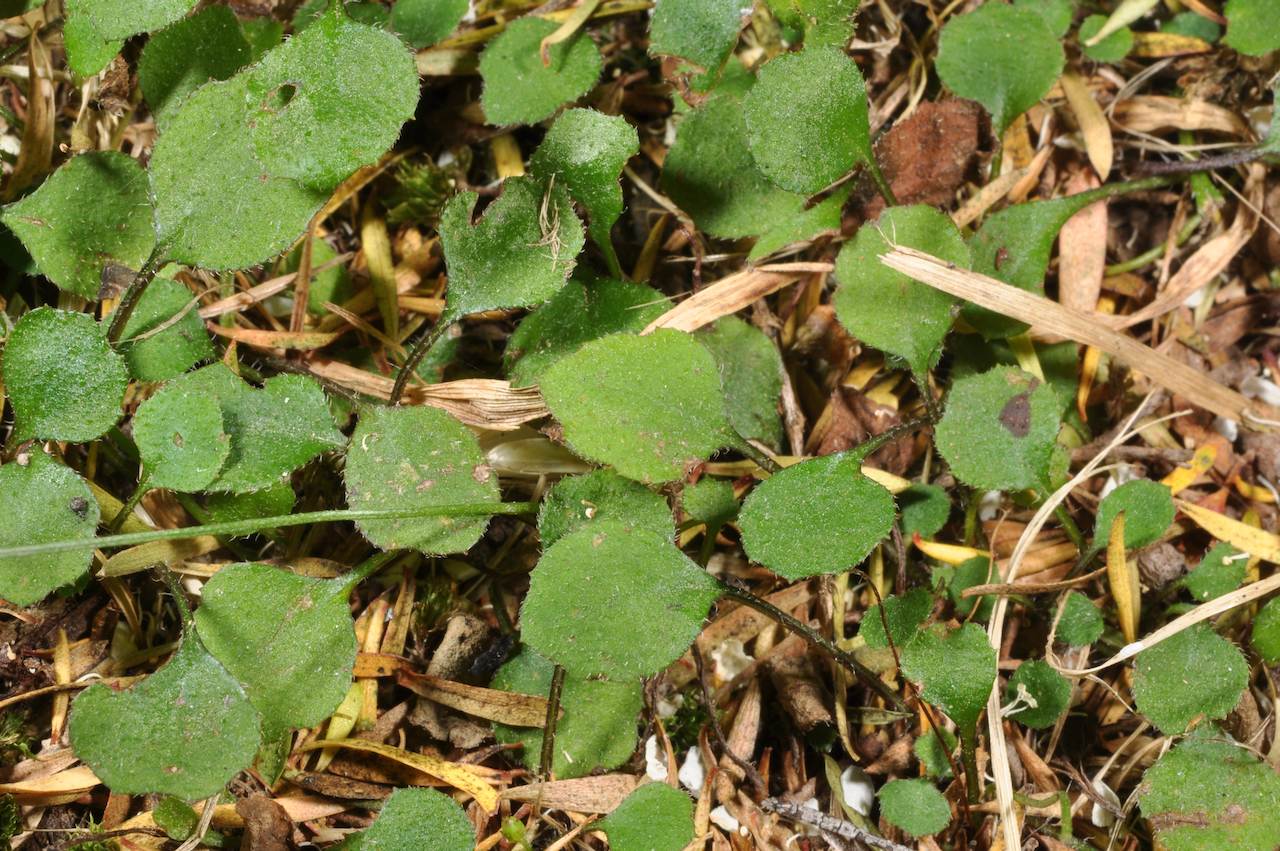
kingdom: Plantae
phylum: Tracheophyta
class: Magnoliopsida
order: Asterales
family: Asteraceae
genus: Lagenophora
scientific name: Lagenophora strangulata
